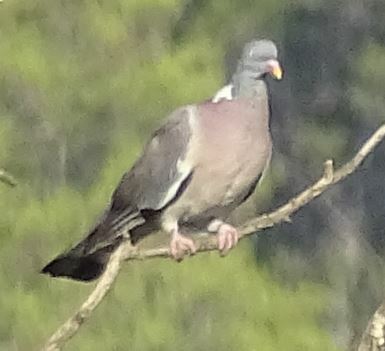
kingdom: Animalia
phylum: Chordata
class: Aves
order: Columbiformes
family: Columbidae
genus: Columba
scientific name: Columba palumbus
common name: Common wood pigeon
